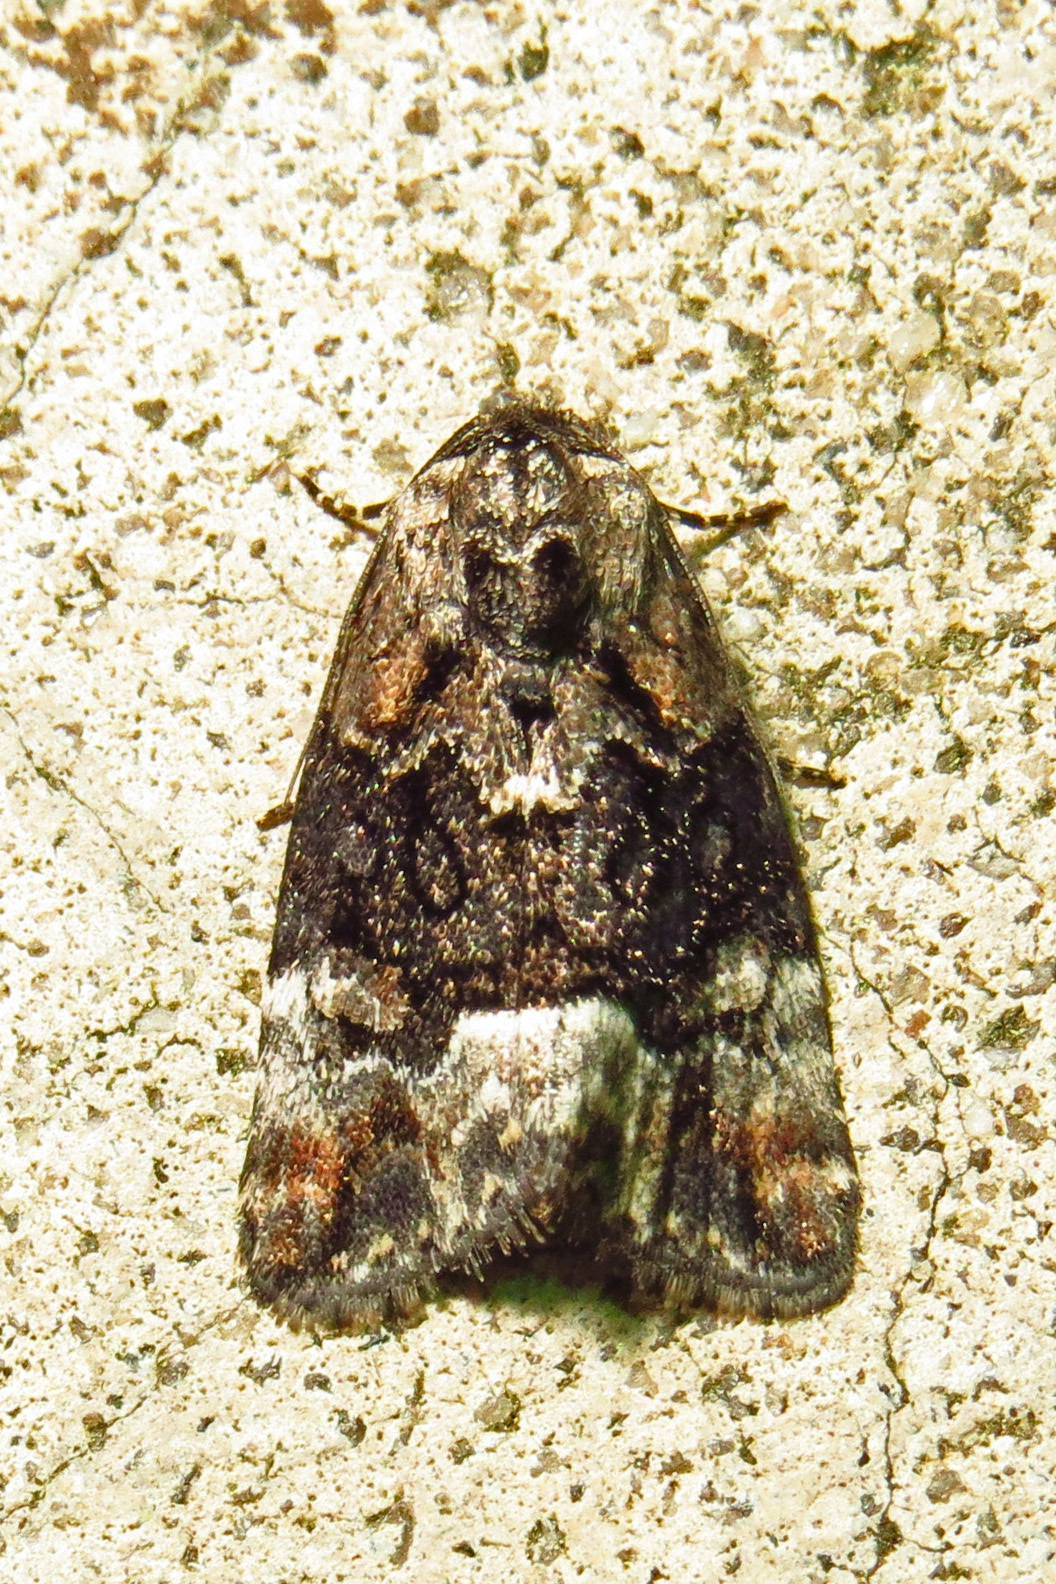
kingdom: Animalia
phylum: Arthropoda
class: Insecta
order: Lepidoptera
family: Noctuidae
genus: Elaphria
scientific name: Elaphria georgei
